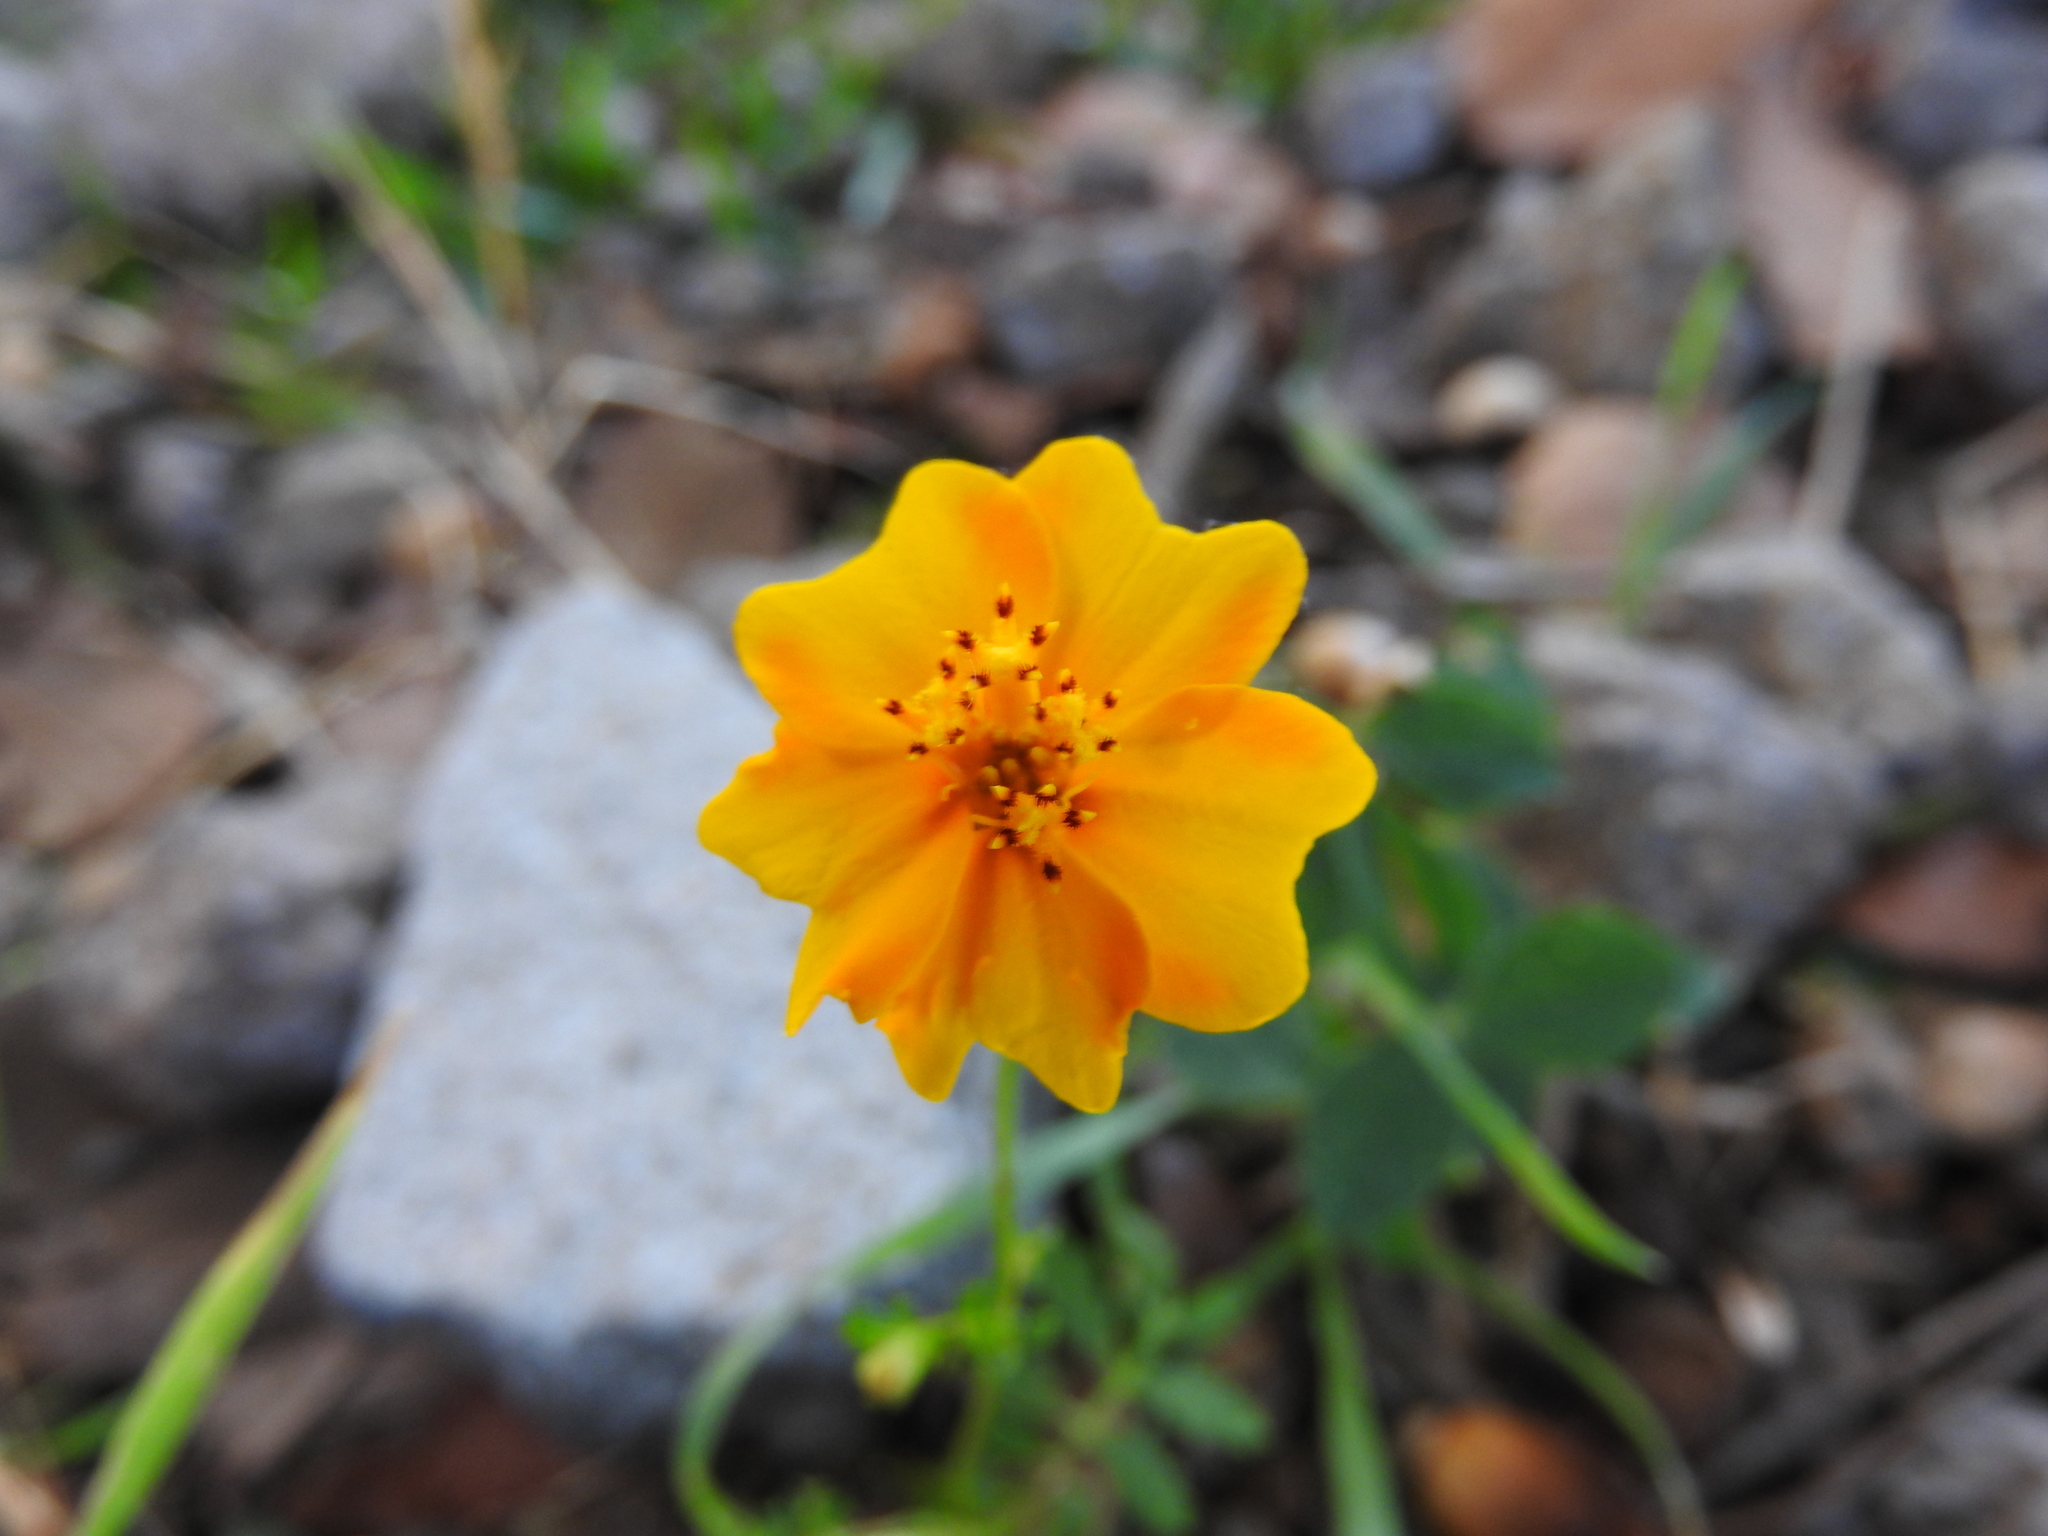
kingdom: Plantae
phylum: Tracheophyta
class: Magnoliopsida
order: Asterales
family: Asteraceae
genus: Tagetes
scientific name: Tagetes tenuifolia
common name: Signet marigold
